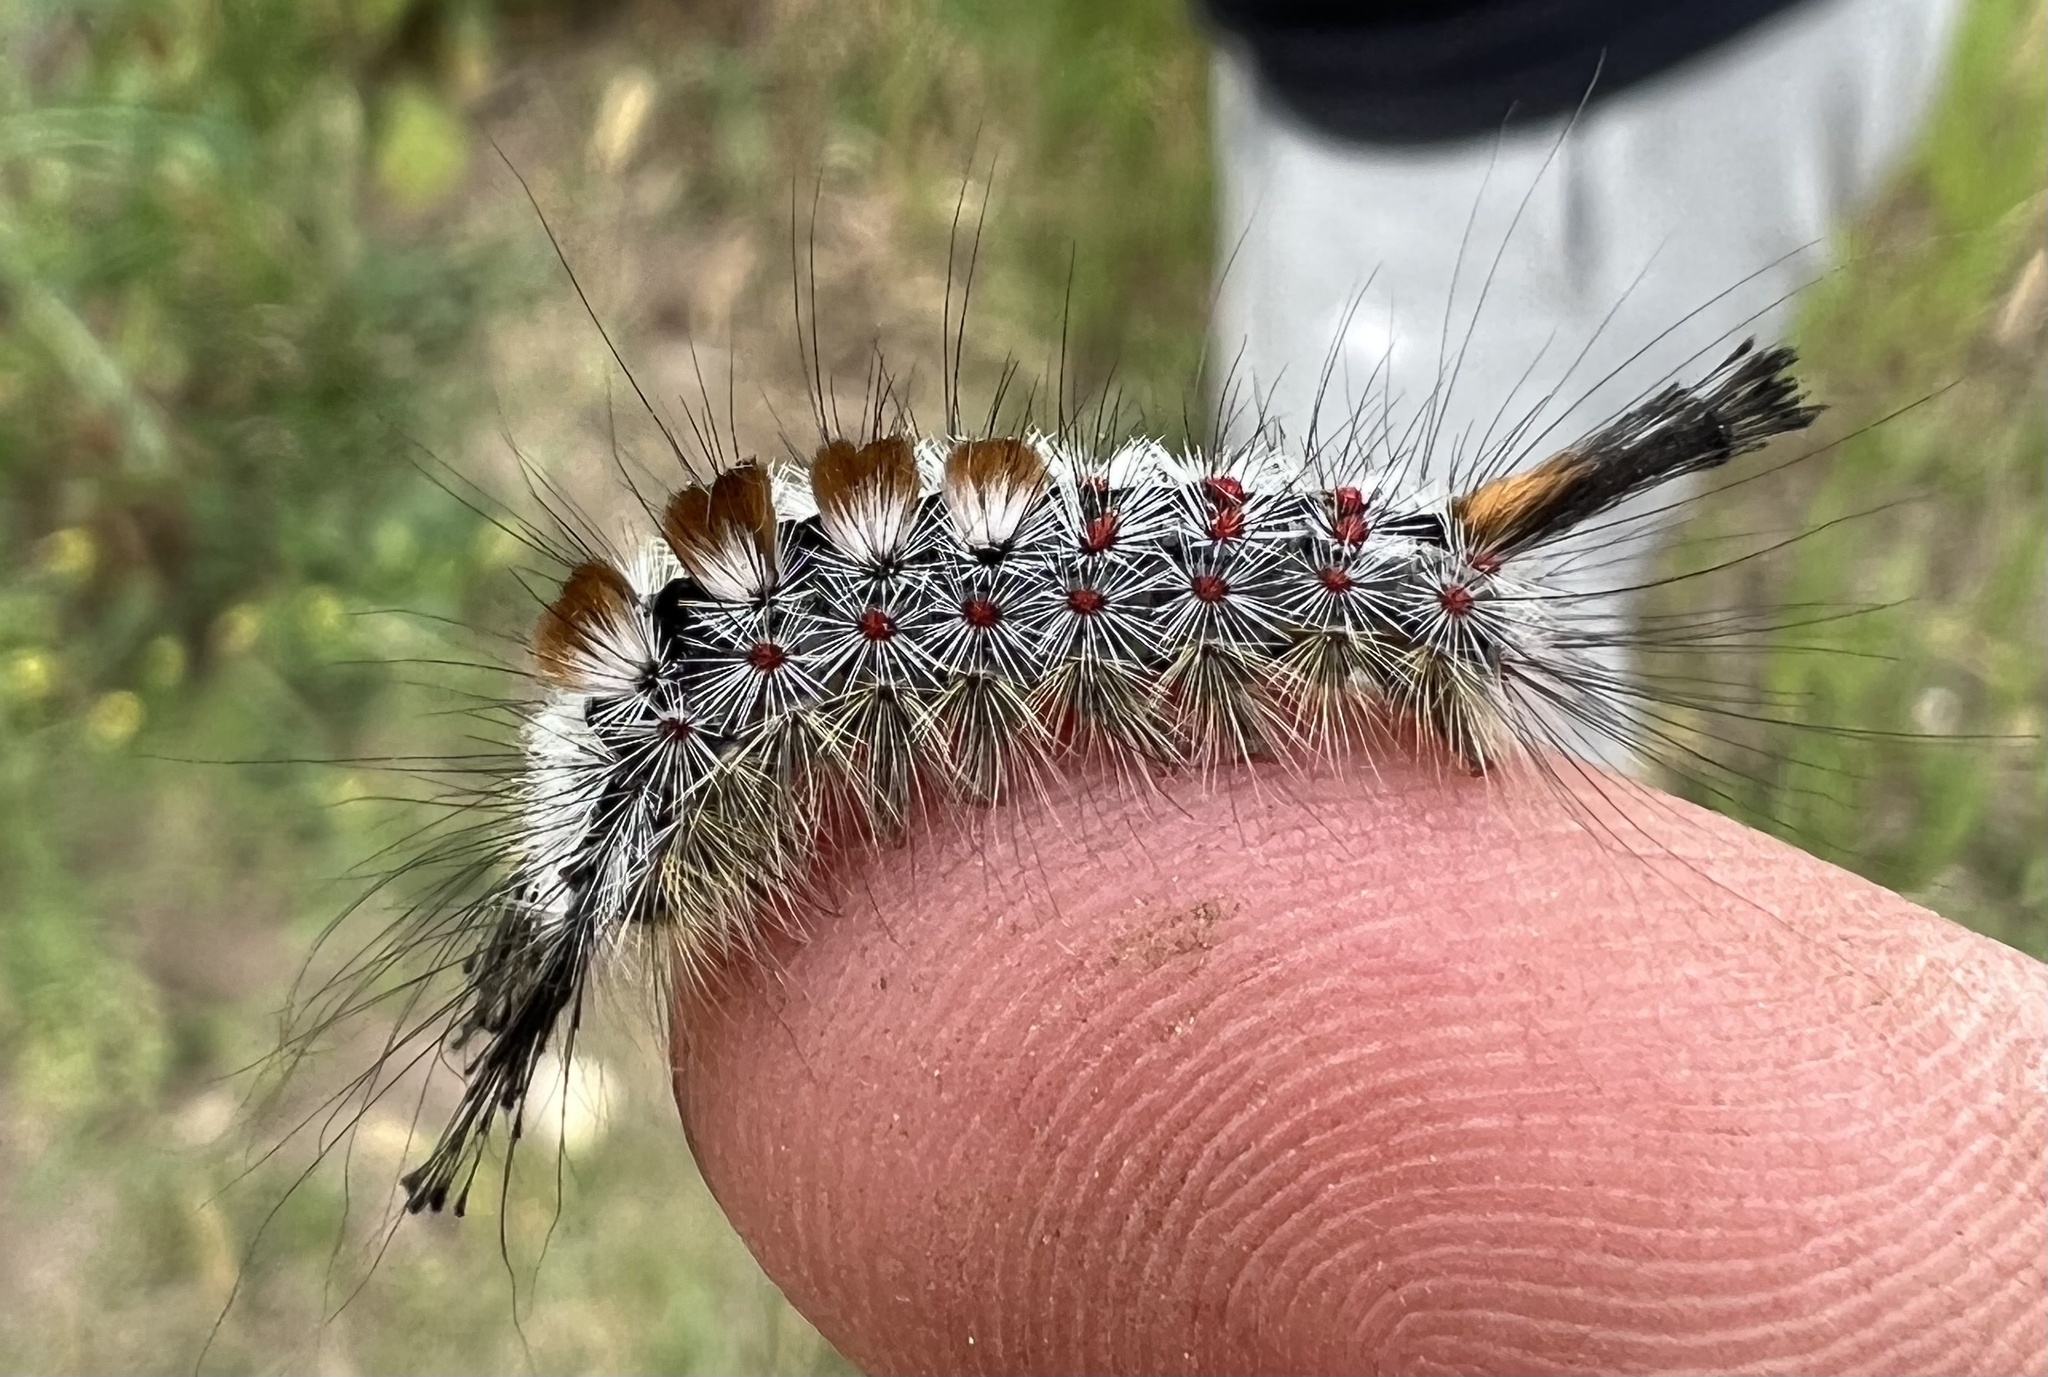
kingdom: Animalia
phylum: Arthropoda
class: Insecta
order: Lepidoptera
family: Erebidae
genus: Orgyia
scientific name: Orgyia pseudotsugata
